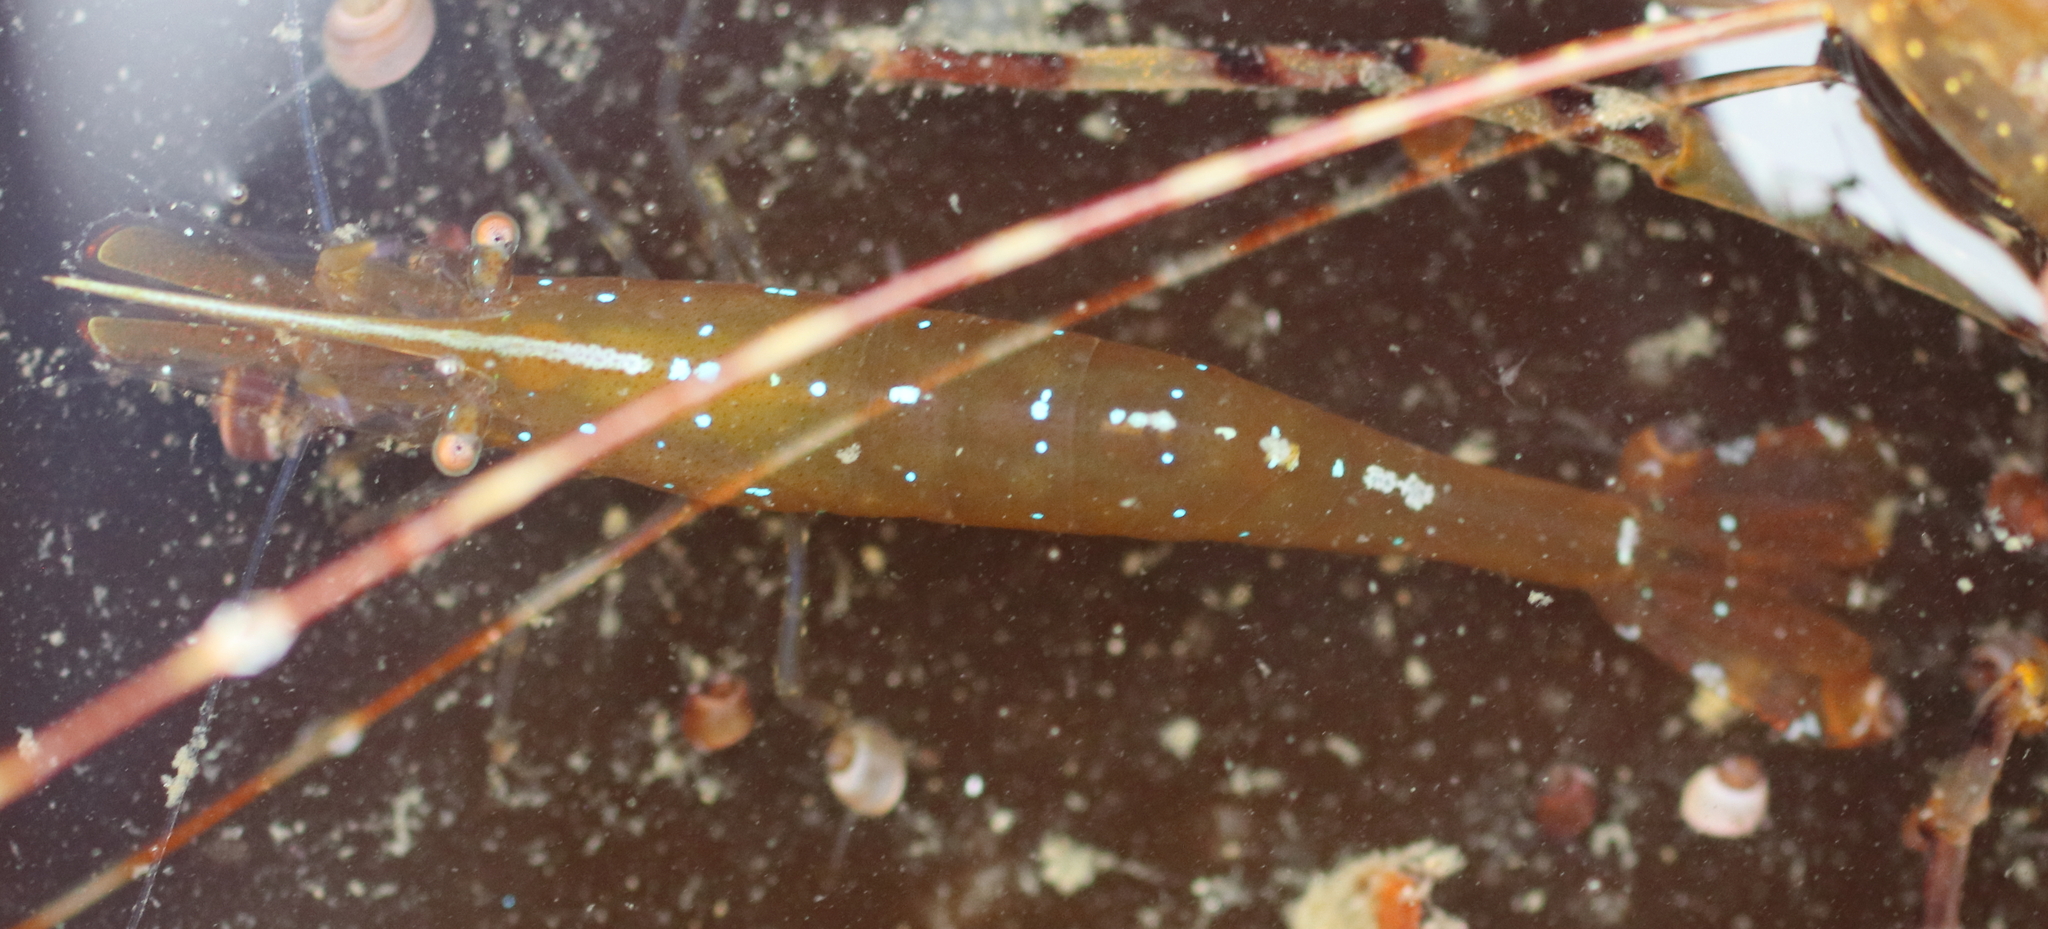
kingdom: Animalia
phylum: Arthropoda
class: Malacostraca
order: Decapoda
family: Thoridae
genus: Heptacarpus
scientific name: Heptacarpus stylus
